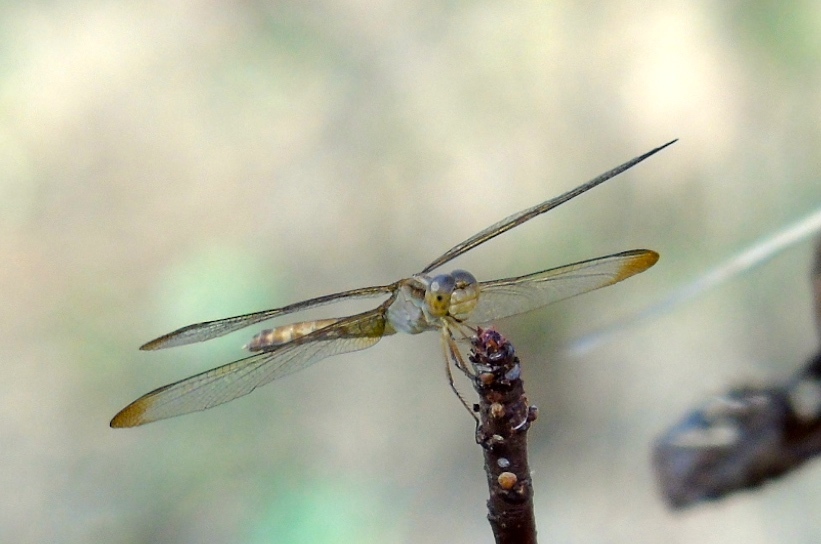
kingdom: Animalia
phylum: Arthropoda
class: Insecta
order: Odonata
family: Libellulidae
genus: Erythrodiplax
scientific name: Erythrodiplax
